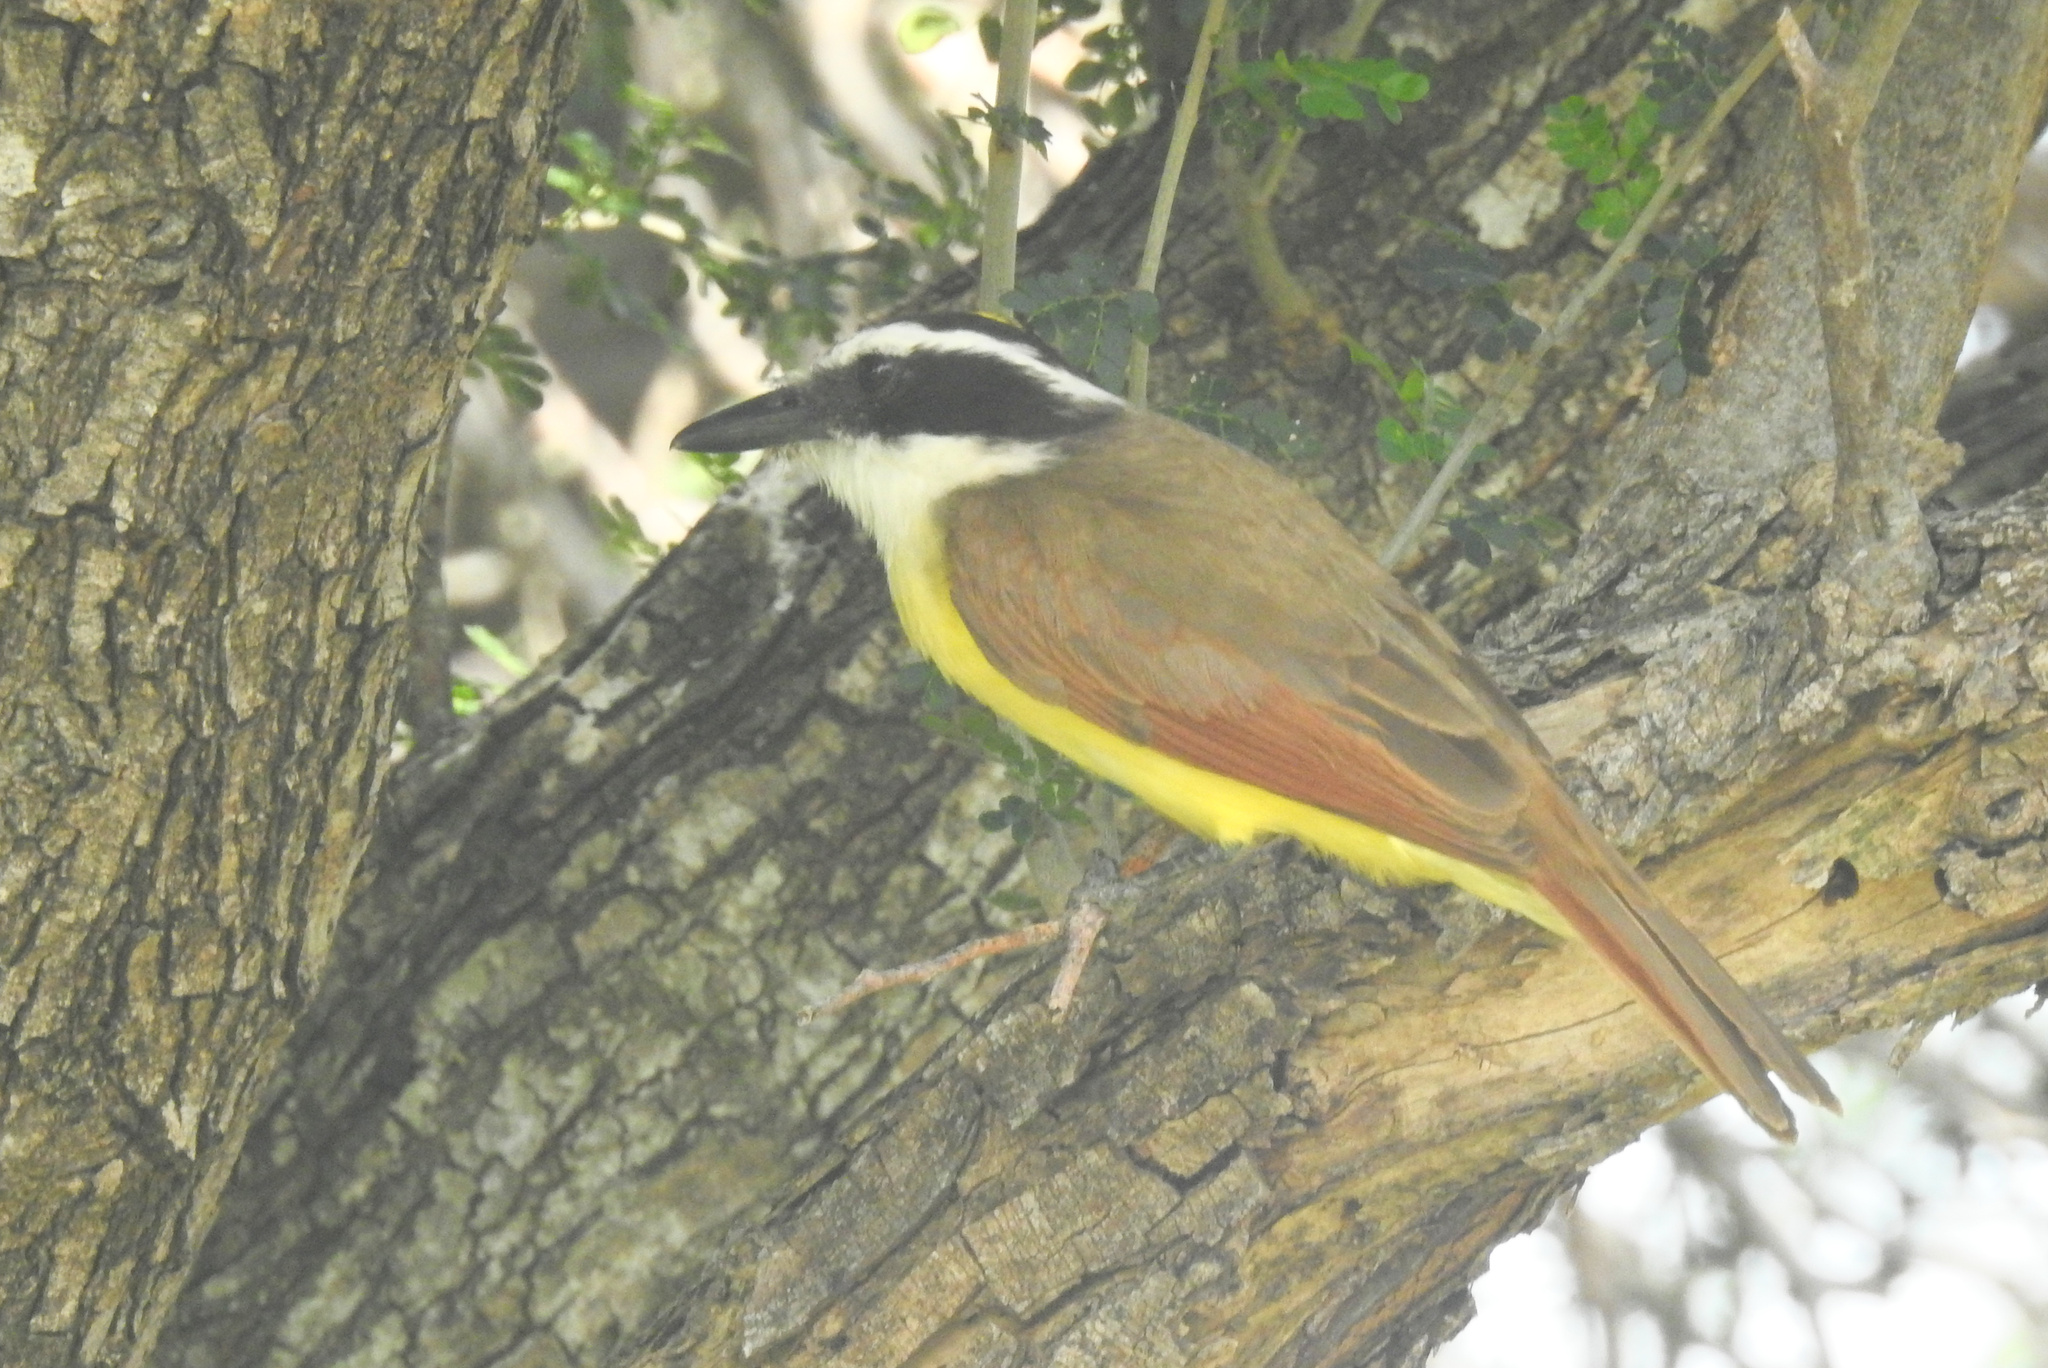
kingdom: Animalia
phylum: Chordata
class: Aves
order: Passeriformes
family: Tyrannidae
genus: Pitangus
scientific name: Pitangus sulphuratus
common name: Great kiskadee
